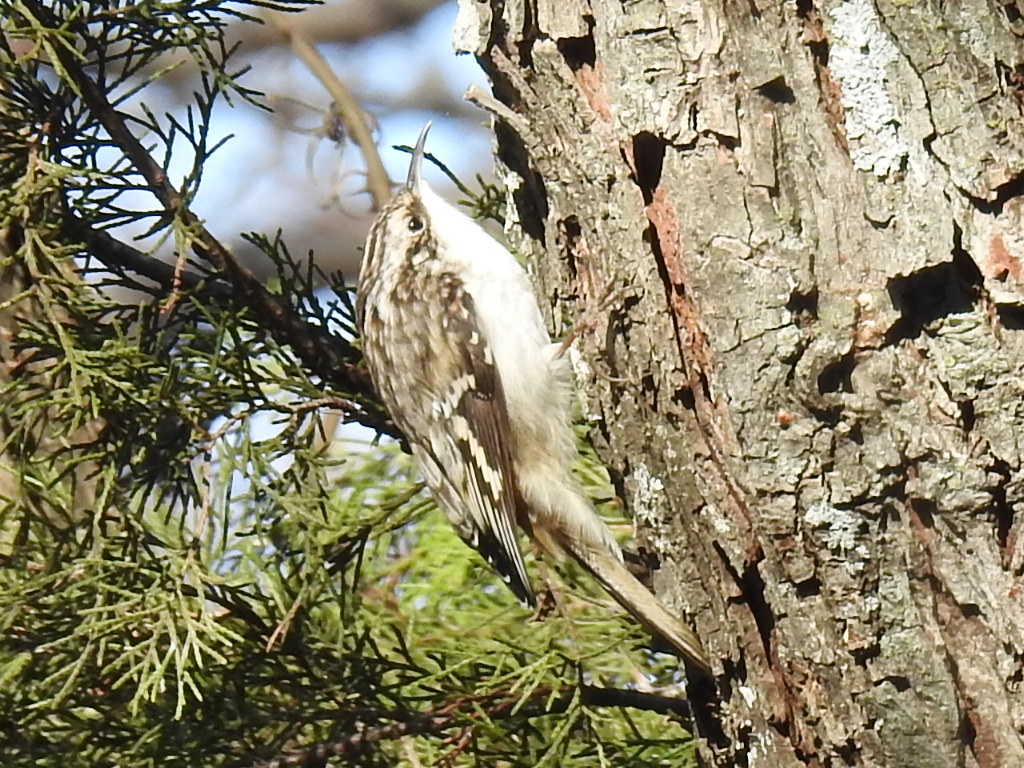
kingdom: Animalia
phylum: Chordata
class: Aves
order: Passeriformes
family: Certhiidae
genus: Certhia
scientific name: Certhia americana
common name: Brown creeper
